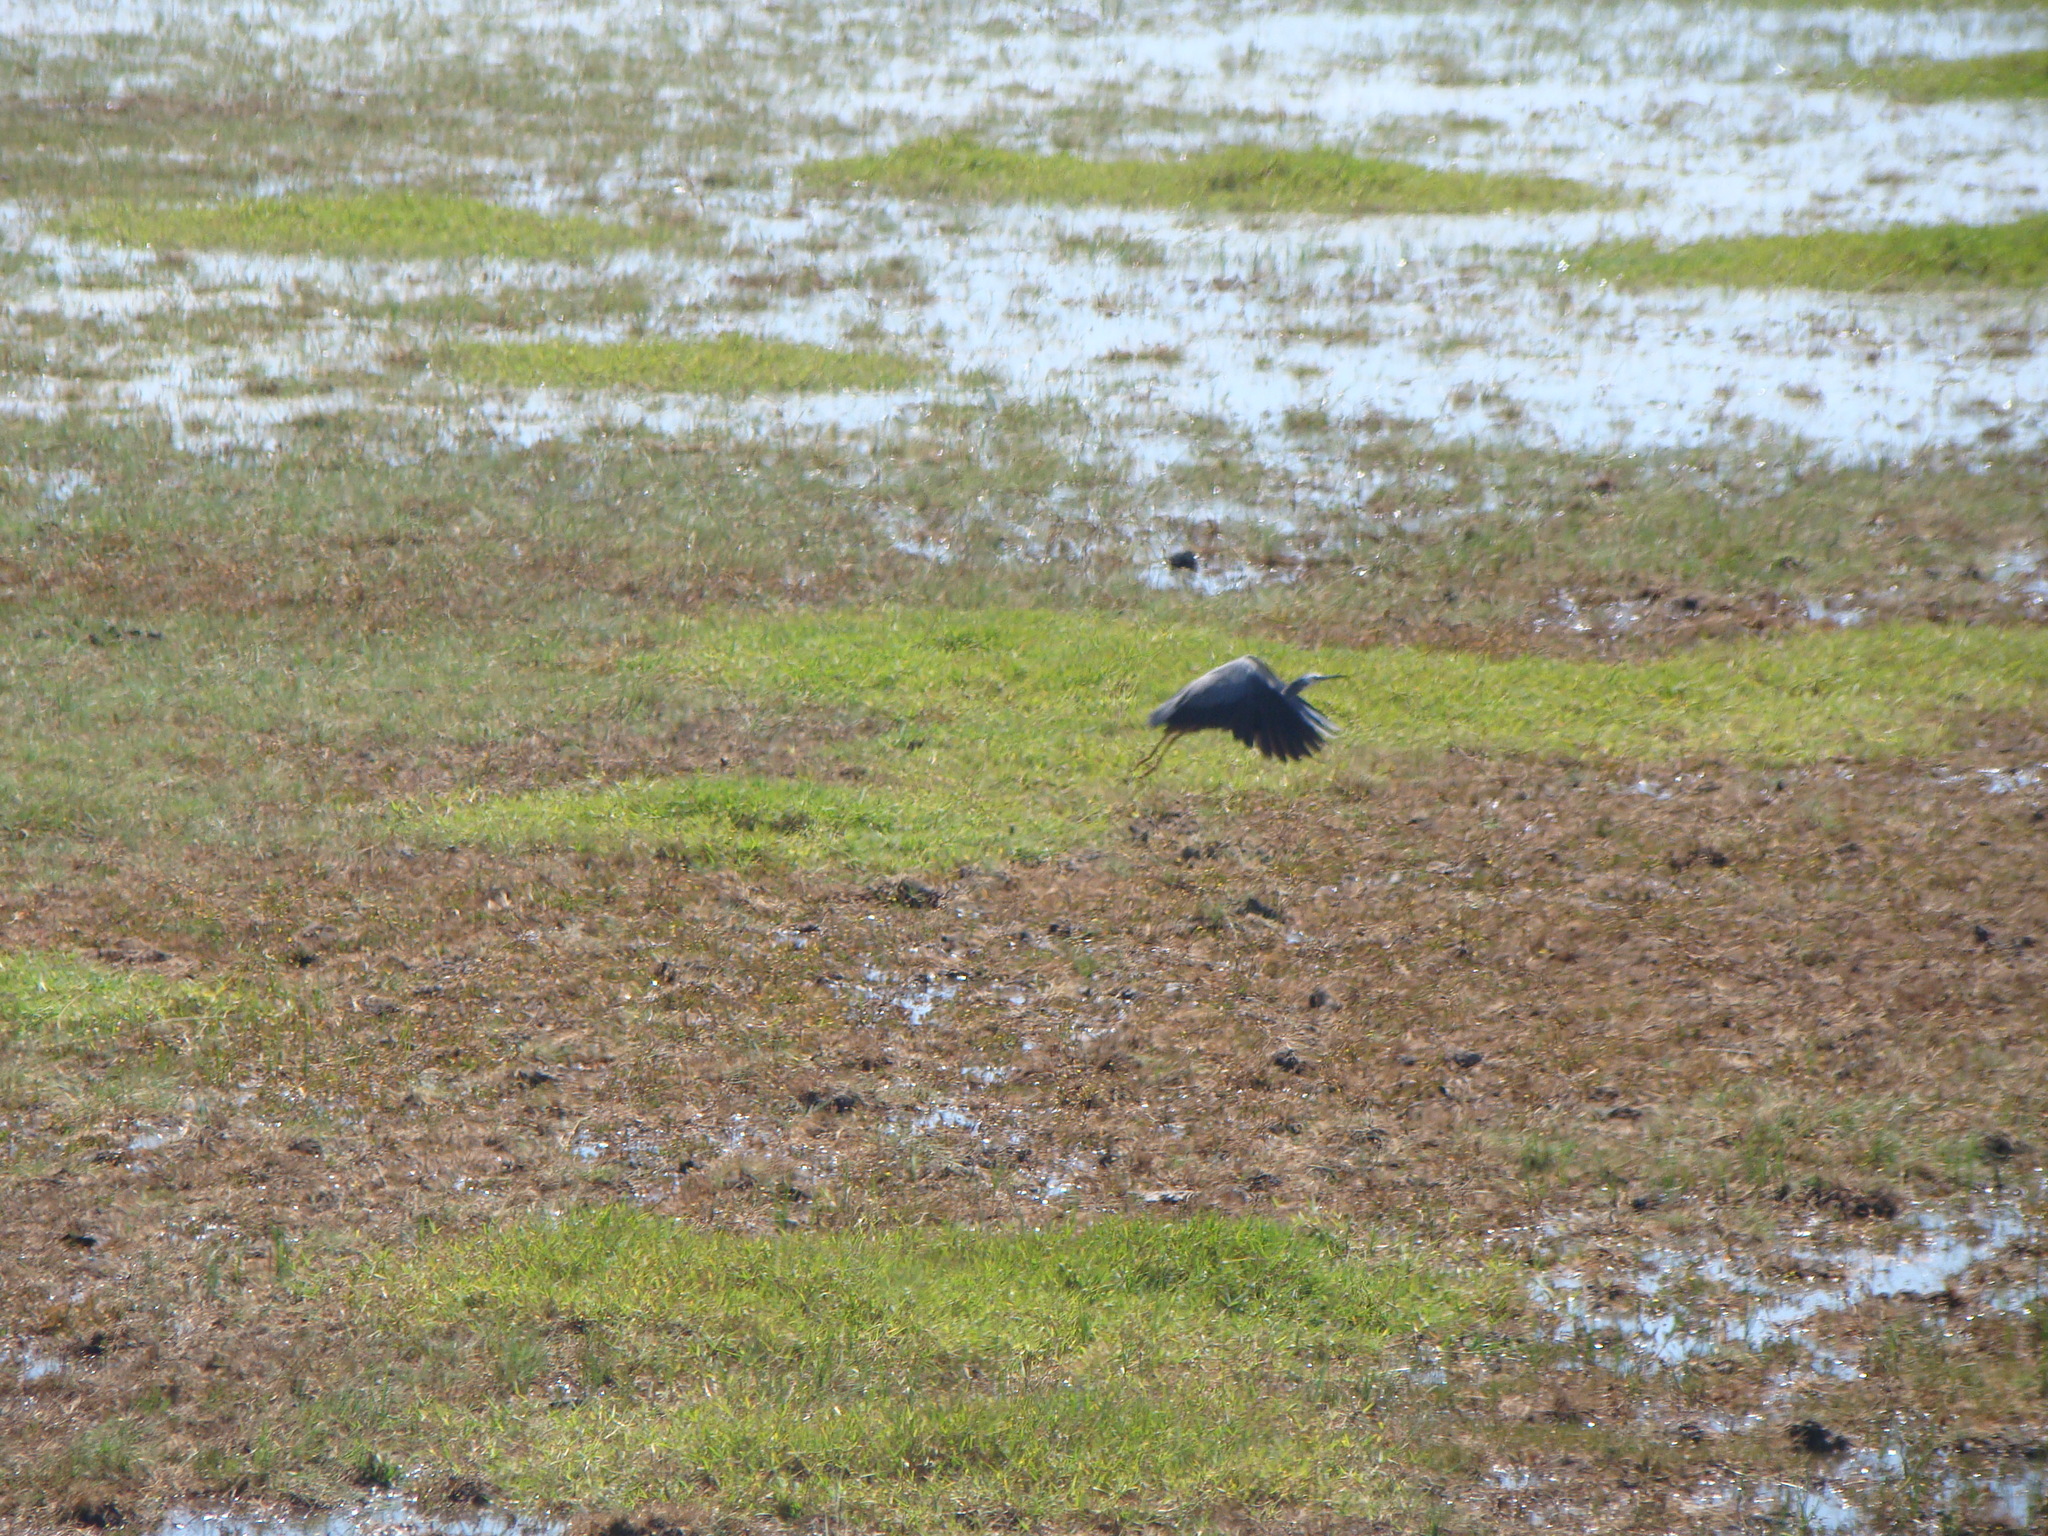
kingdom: Animalia
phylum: Chordata
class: Aves
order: Pelecaniformes
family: Ardeidae
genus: Egretta
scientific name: Egretta novaehollandiae
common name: White-faced heron
